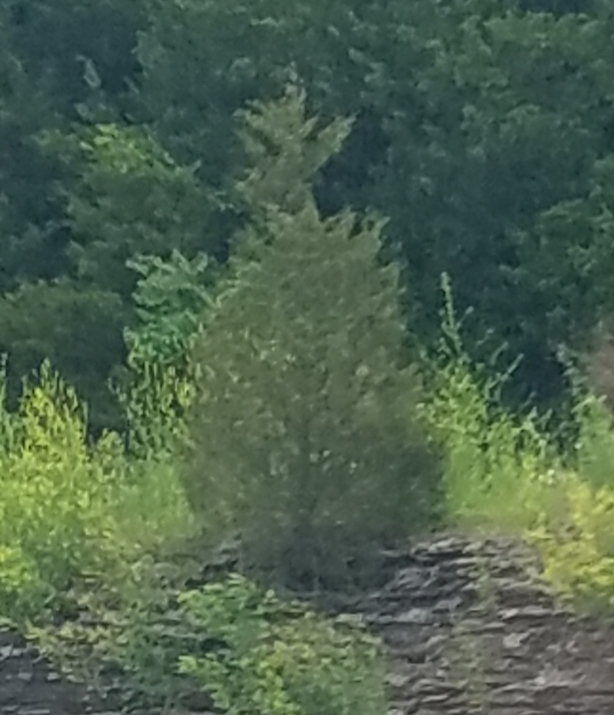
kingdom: Plantae
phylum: Tracheophyta
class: Pinopsida
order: Pinales
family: Cupressaceae
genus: Juniperus
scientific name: Juniperus virginiana
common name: Red juniper
